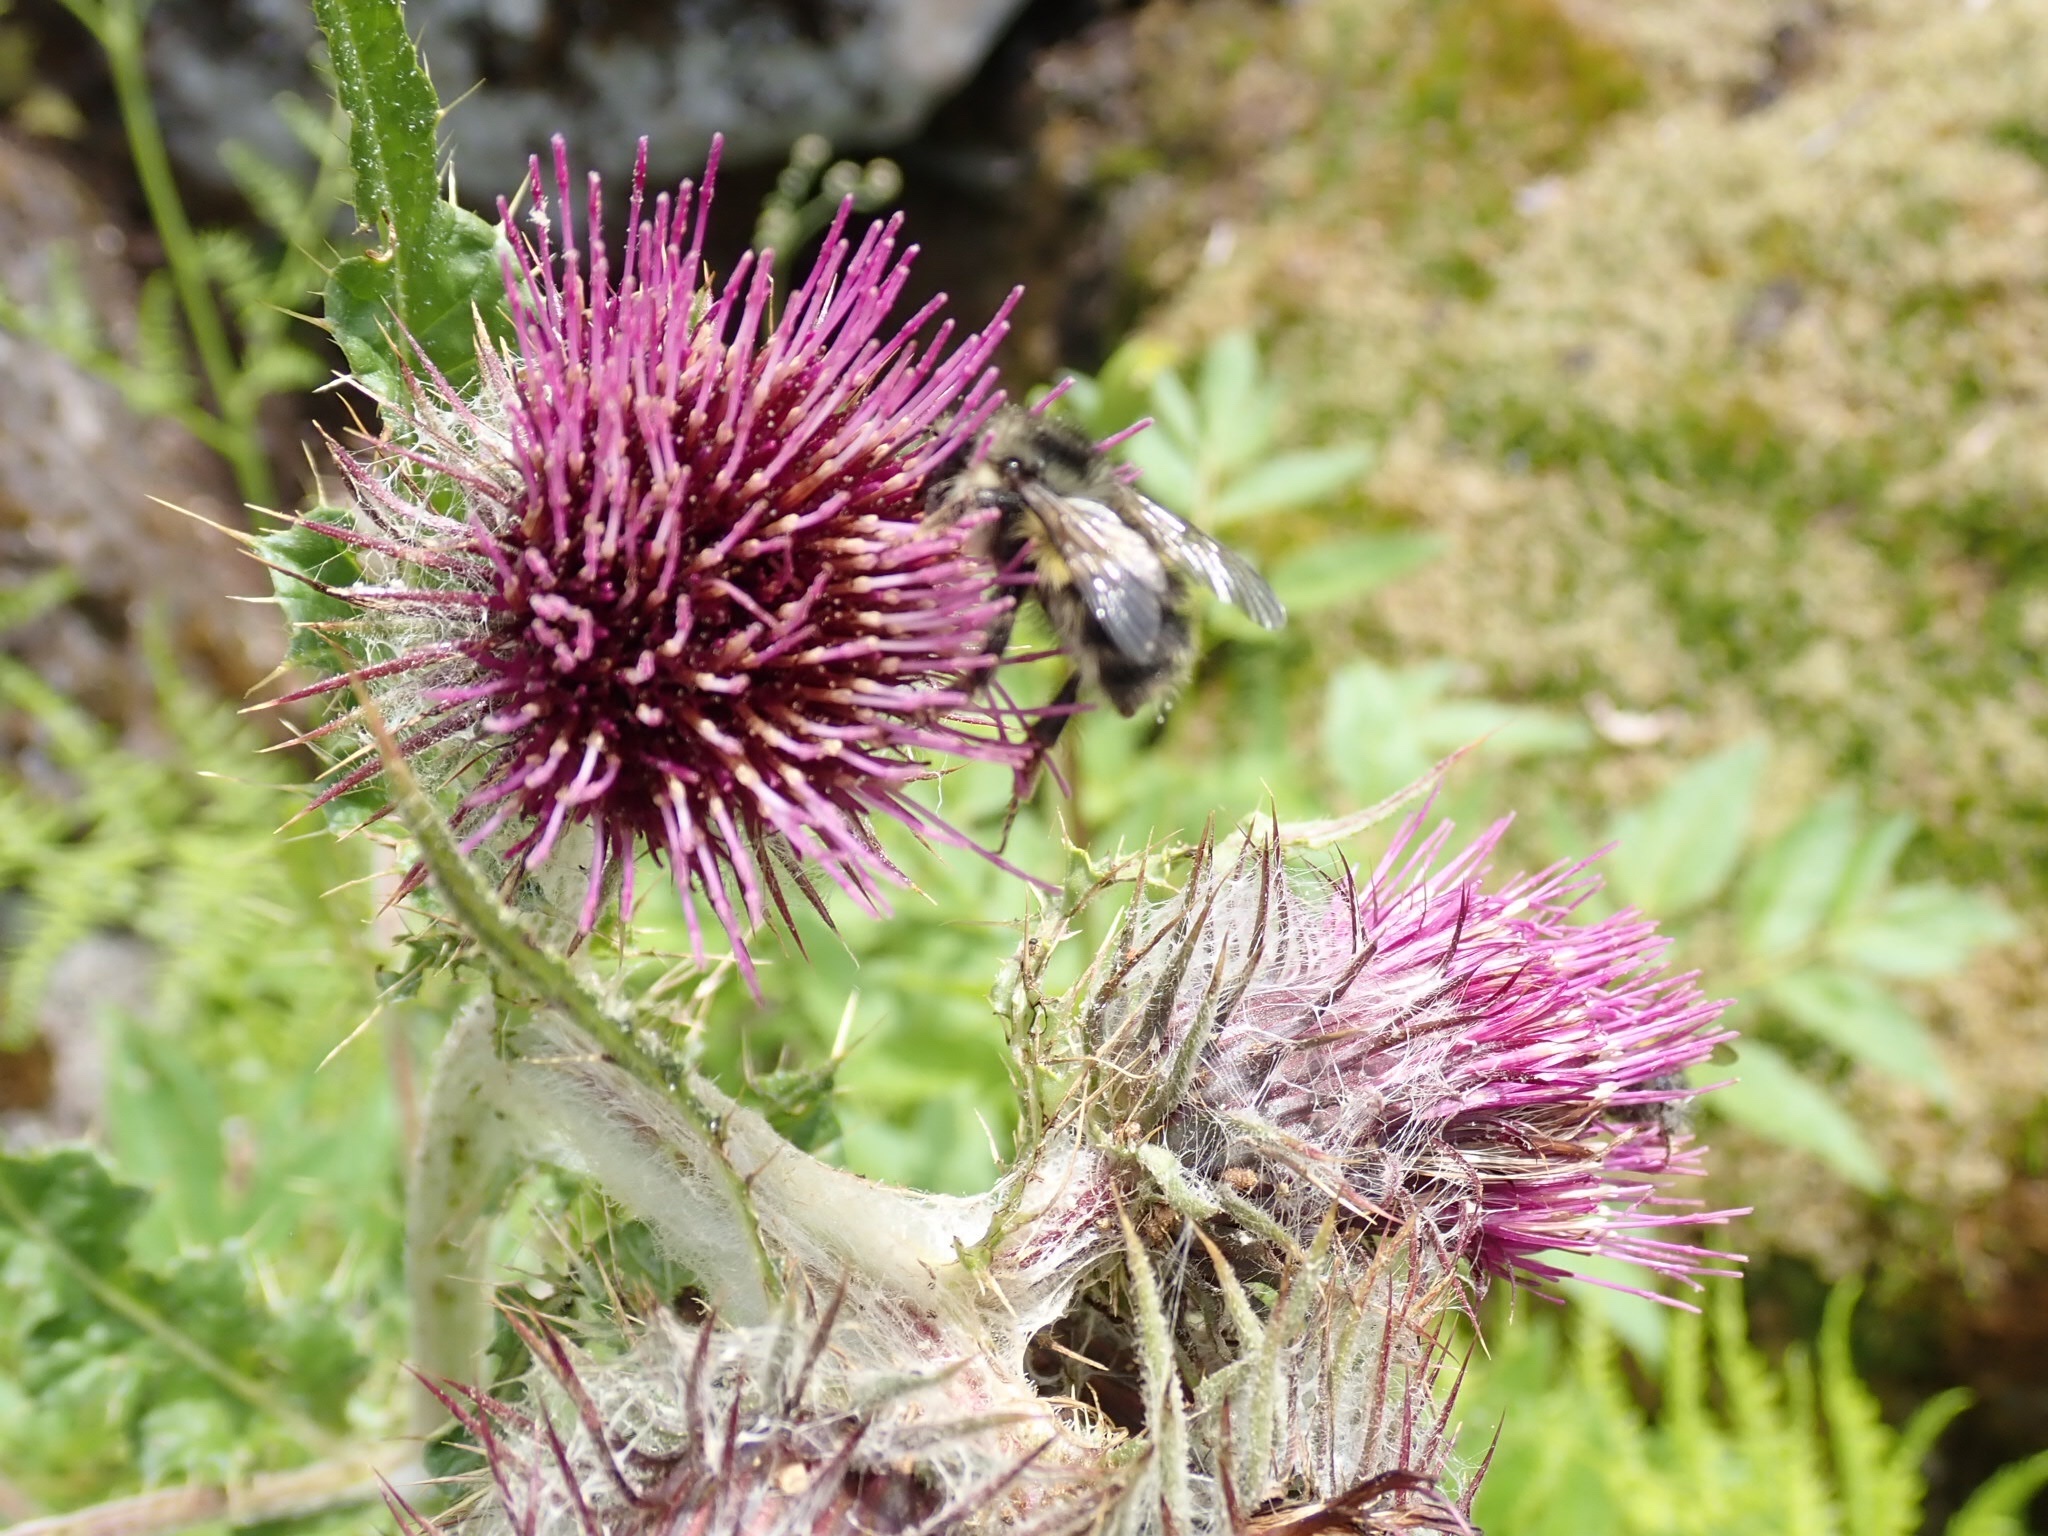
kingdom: Plantae
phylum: Tracheophyta
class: Magnoliopsida
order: Asterales
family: Asteraceae
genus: Cirsium
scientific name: Cirsium edule
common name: Indian thistle
